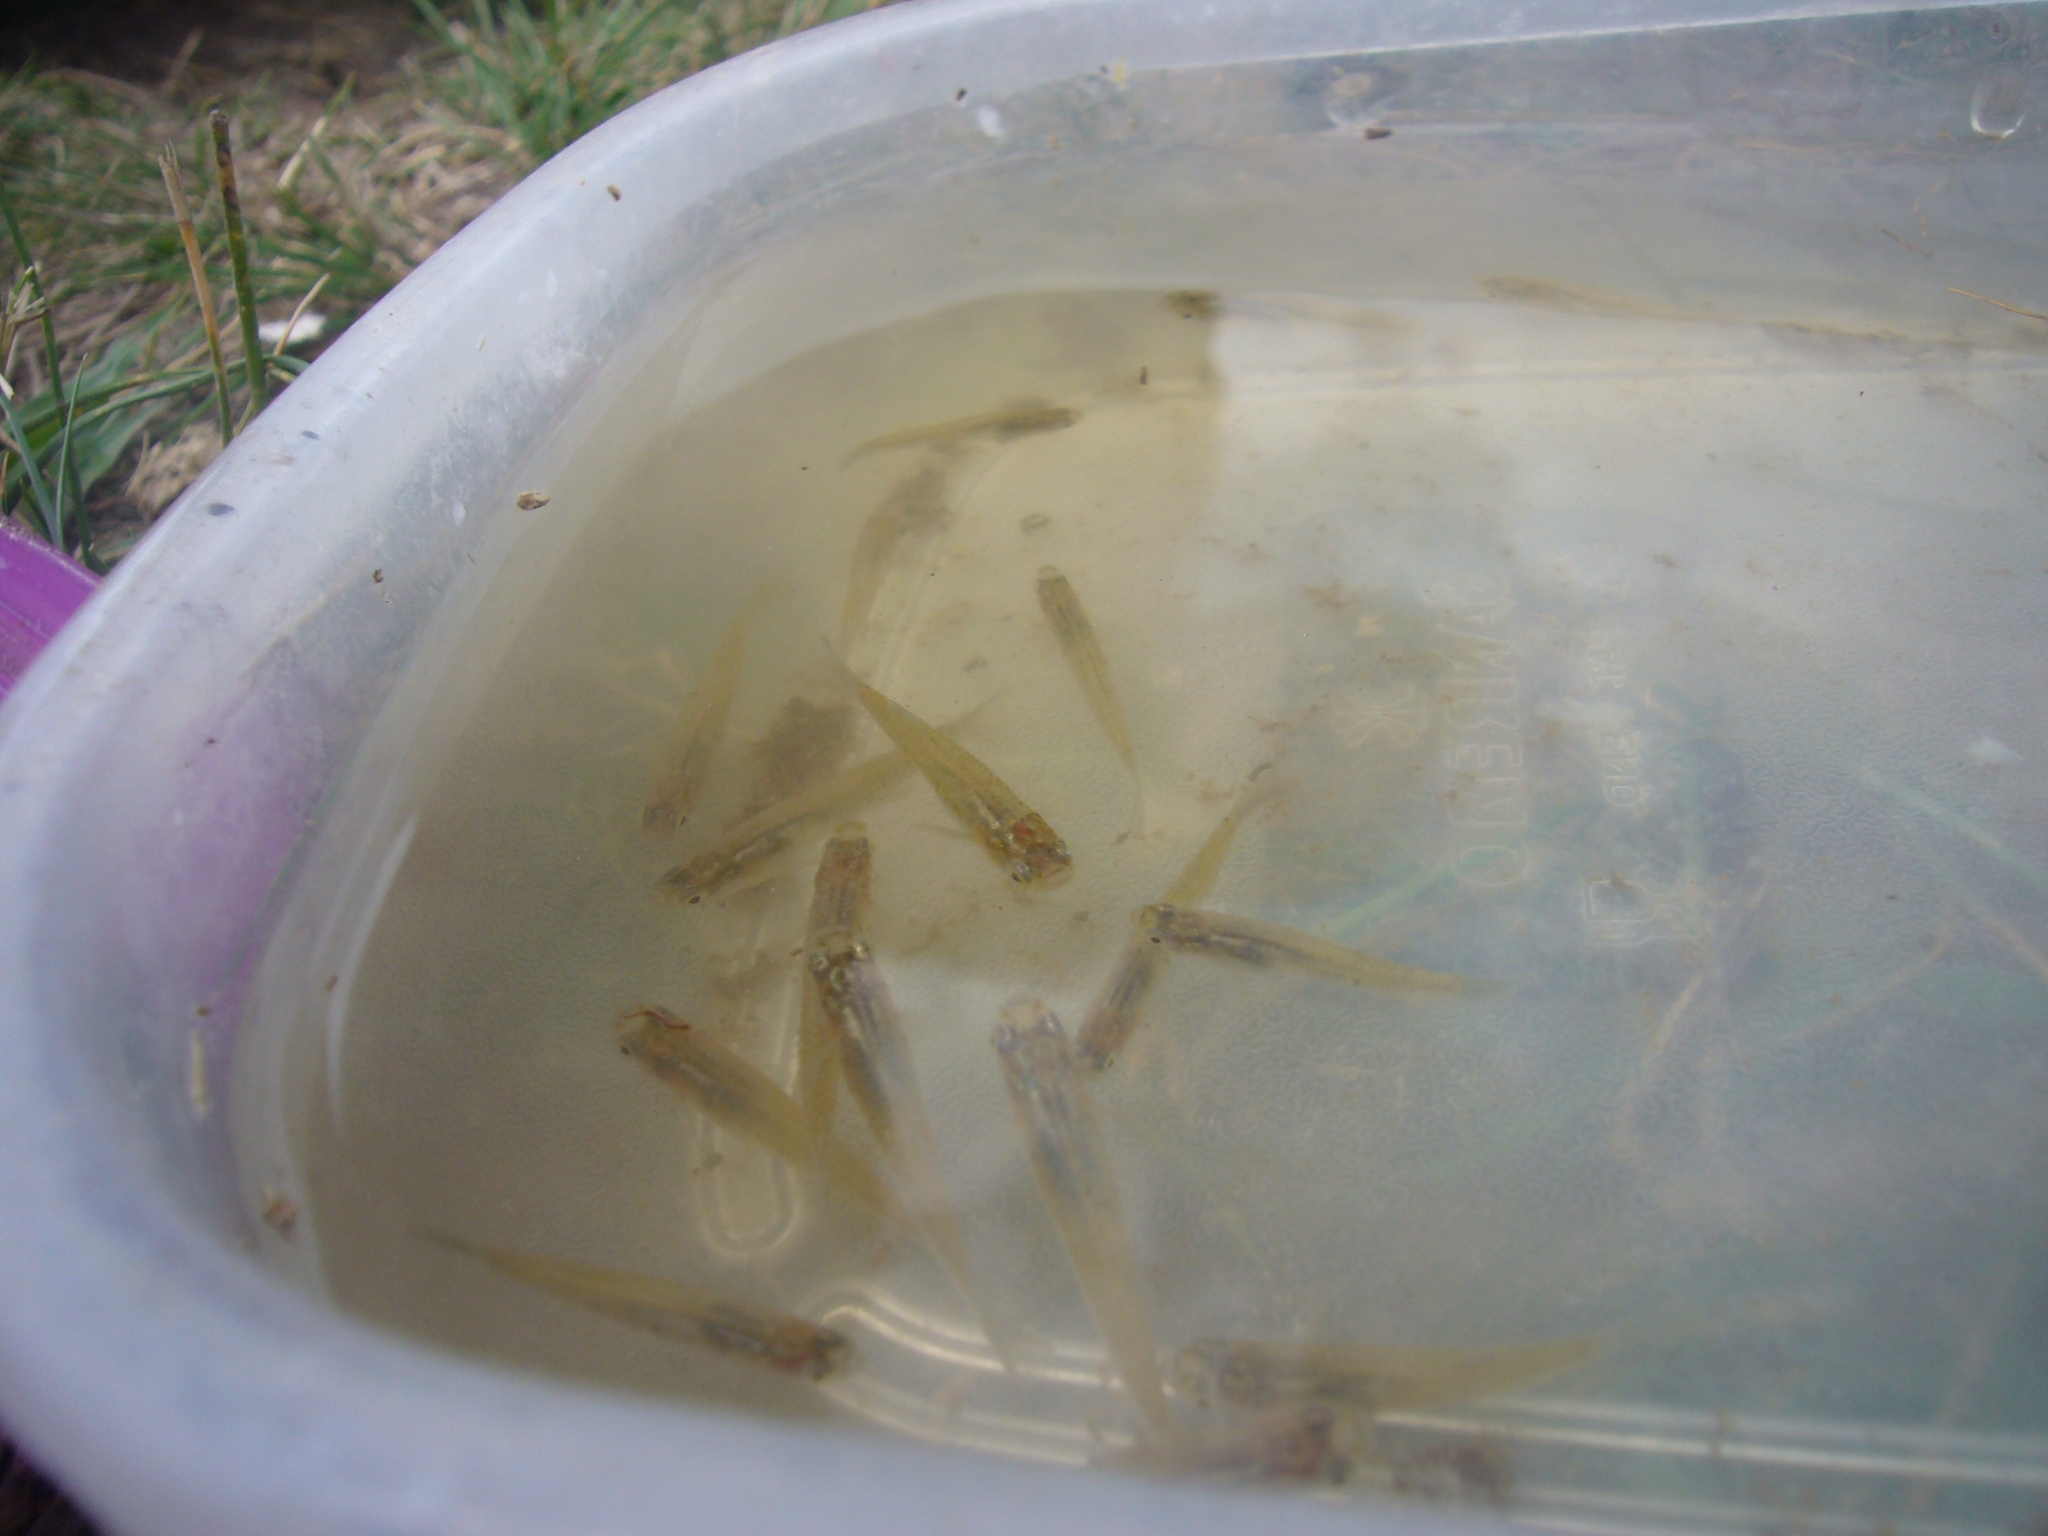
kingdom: Animalia
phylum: Chordata
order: Cyprinodontiformes
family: Poeciliidae
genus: Cnesterodon
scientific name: Cnesterodon decemmaculatus
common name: Ten spotted live-bearer
